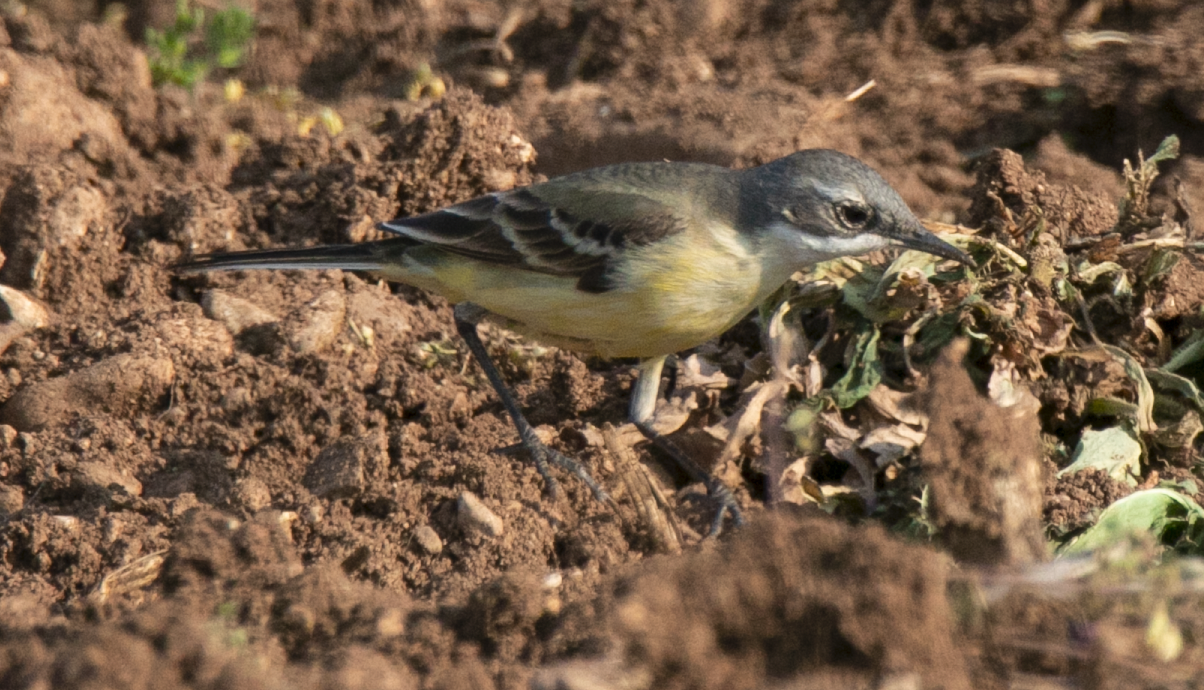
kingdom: Animalia
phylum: Chordata
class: Aves
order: Passeriformes
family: Motacillidae
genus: Motacilla
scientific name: Motacilla flava
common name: Western yellow wagtail
